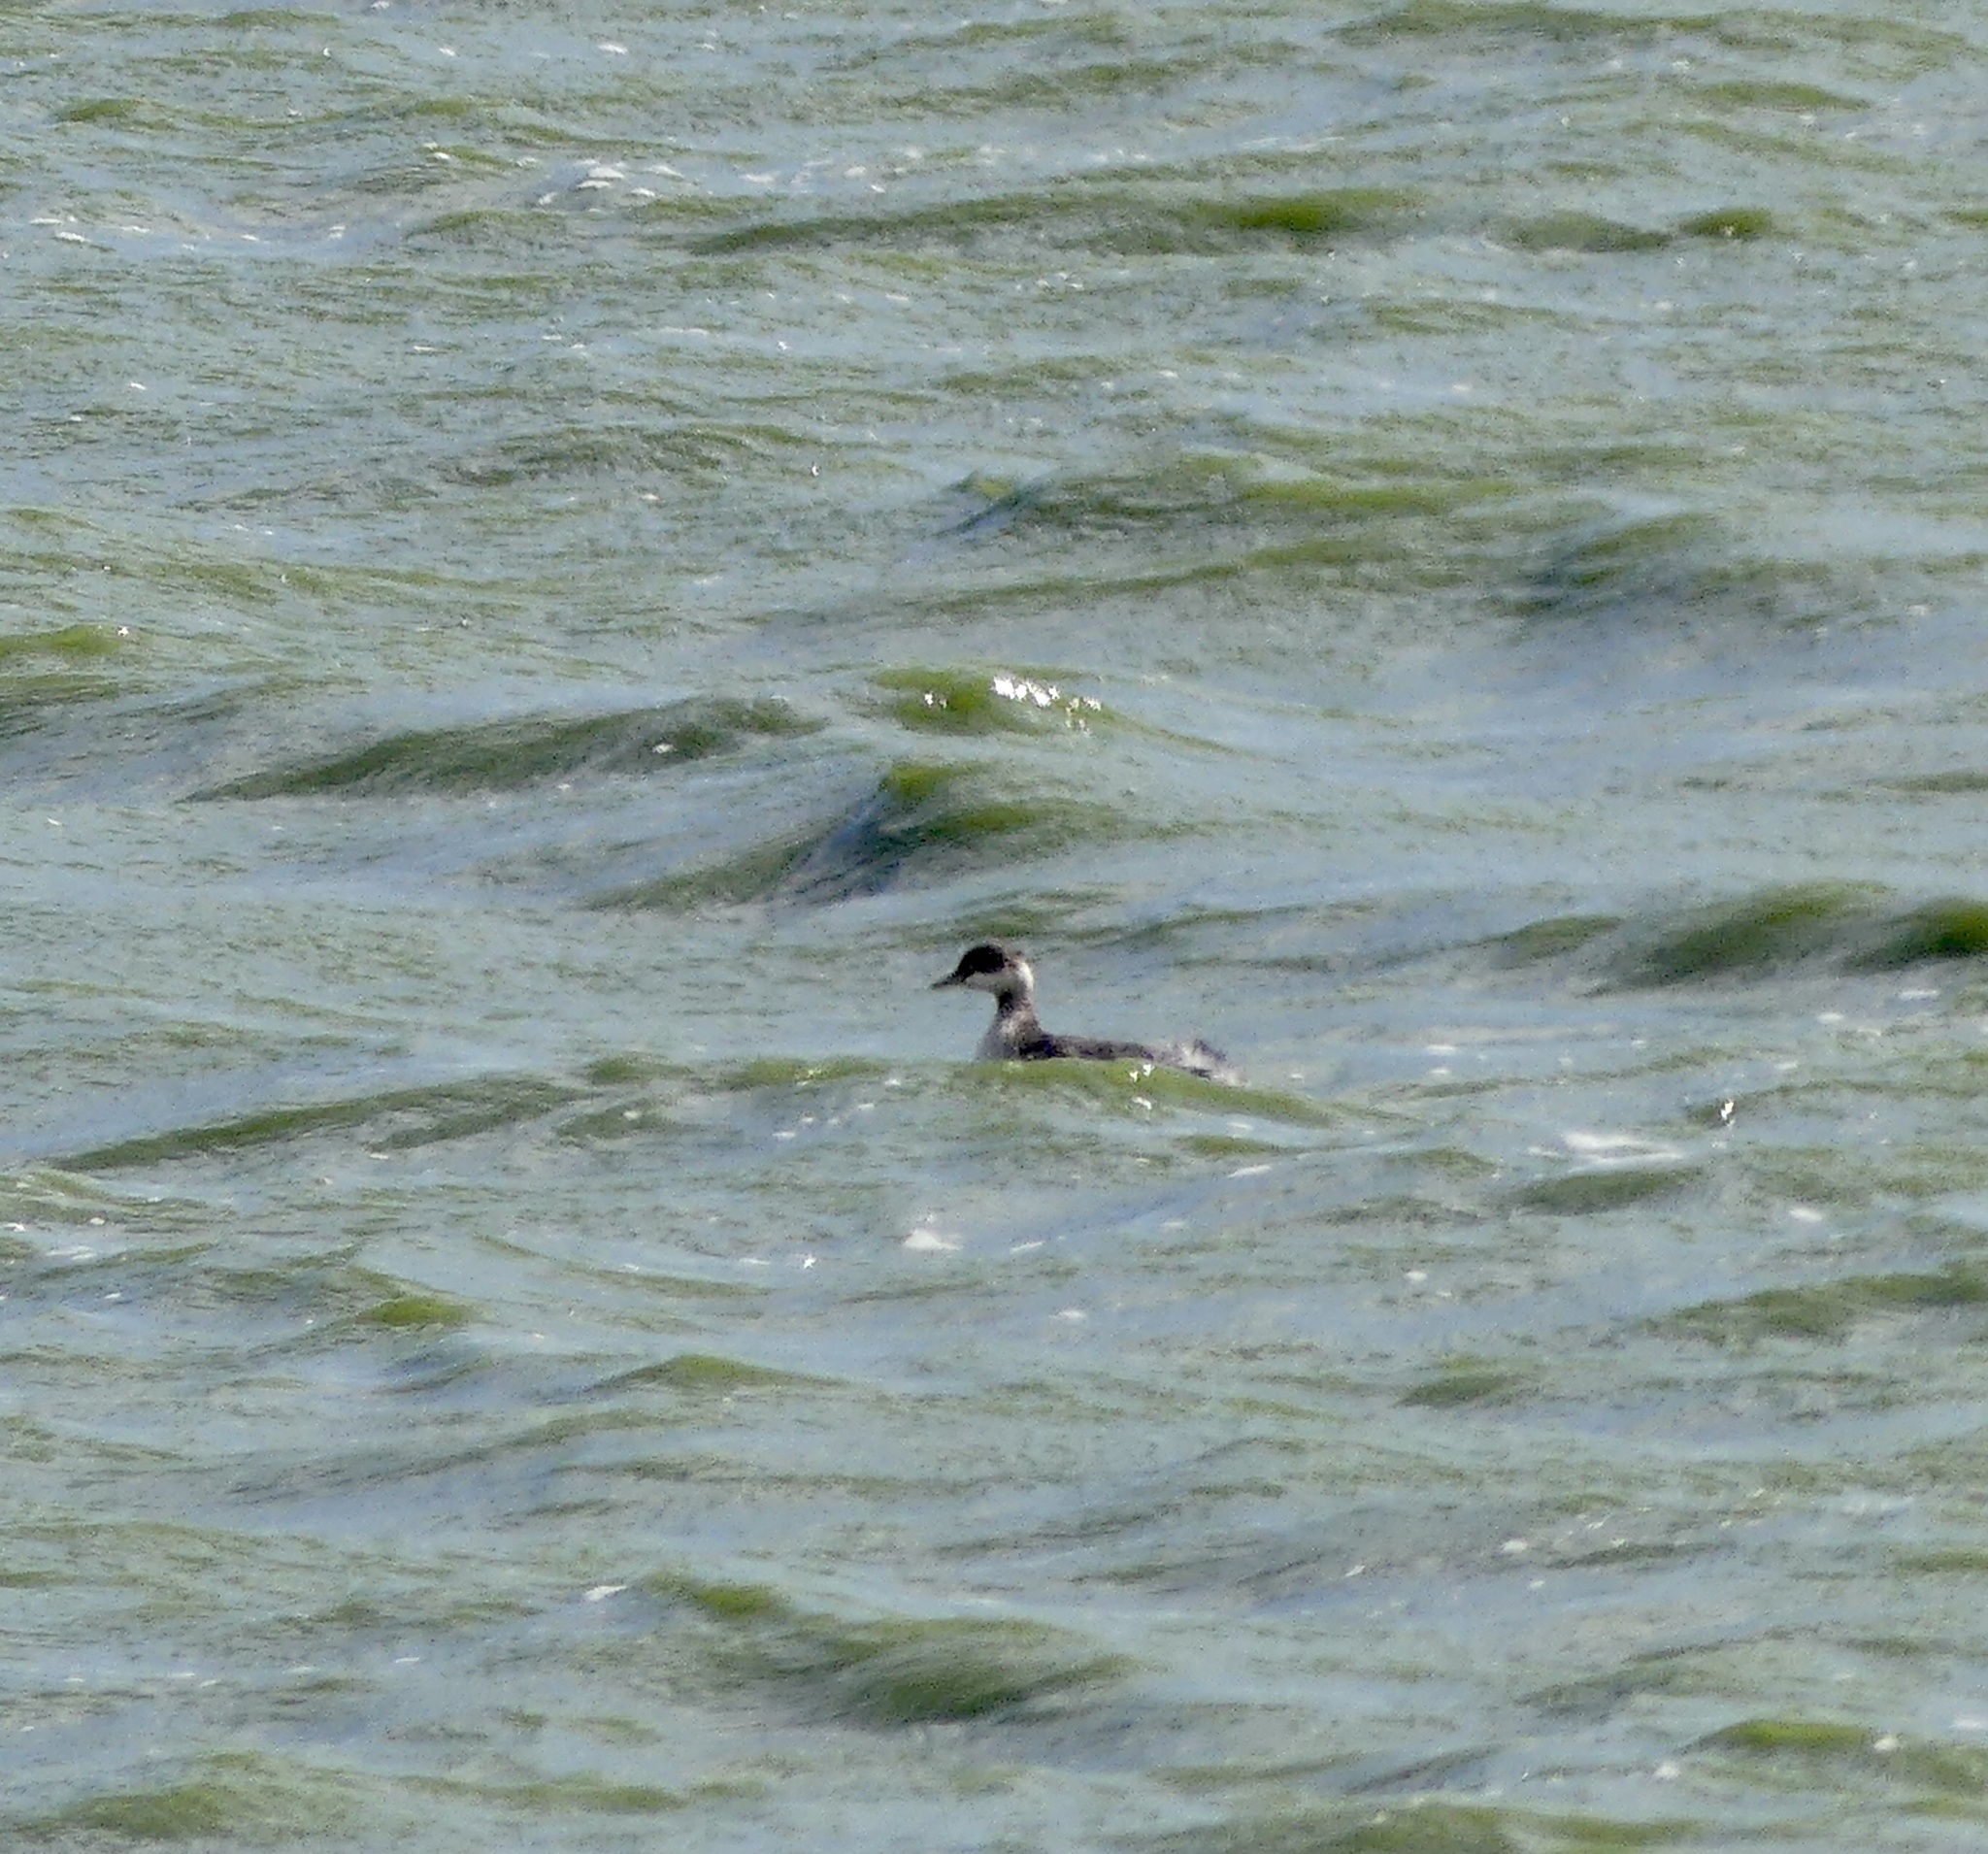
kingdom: Animalia
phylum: Chordata
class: Aves
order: Podicipediformes
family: Podicipedidae
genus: Podiceps
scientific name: Podiceps nigricollis
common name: Black-necked grebe
